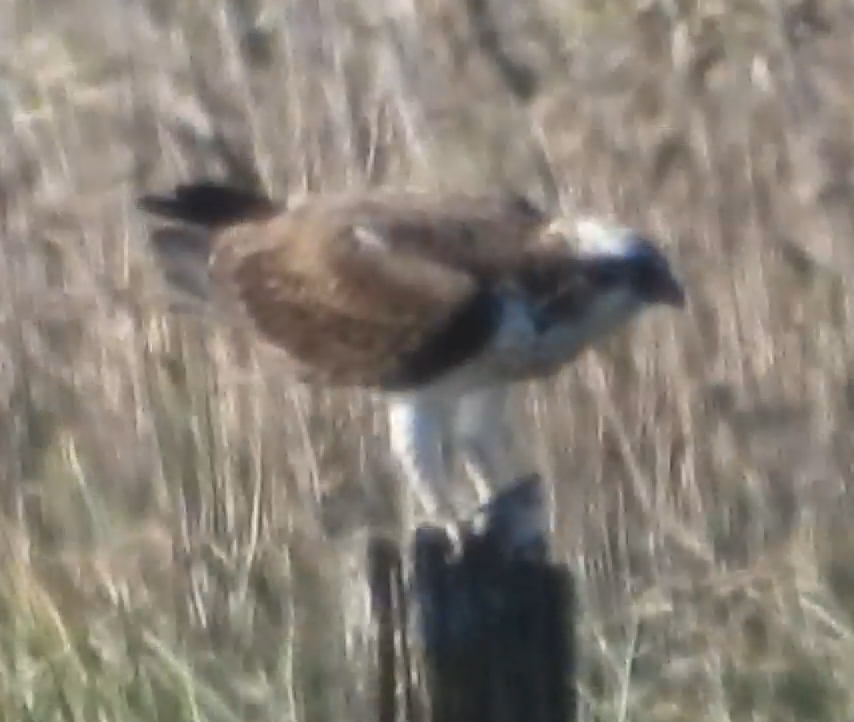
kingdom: Animalia
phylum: Chordata
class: Aves
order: Accipitriformes
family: Pandionidae
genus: Pandion
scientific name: Pandion haliaetus
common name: Osprey
